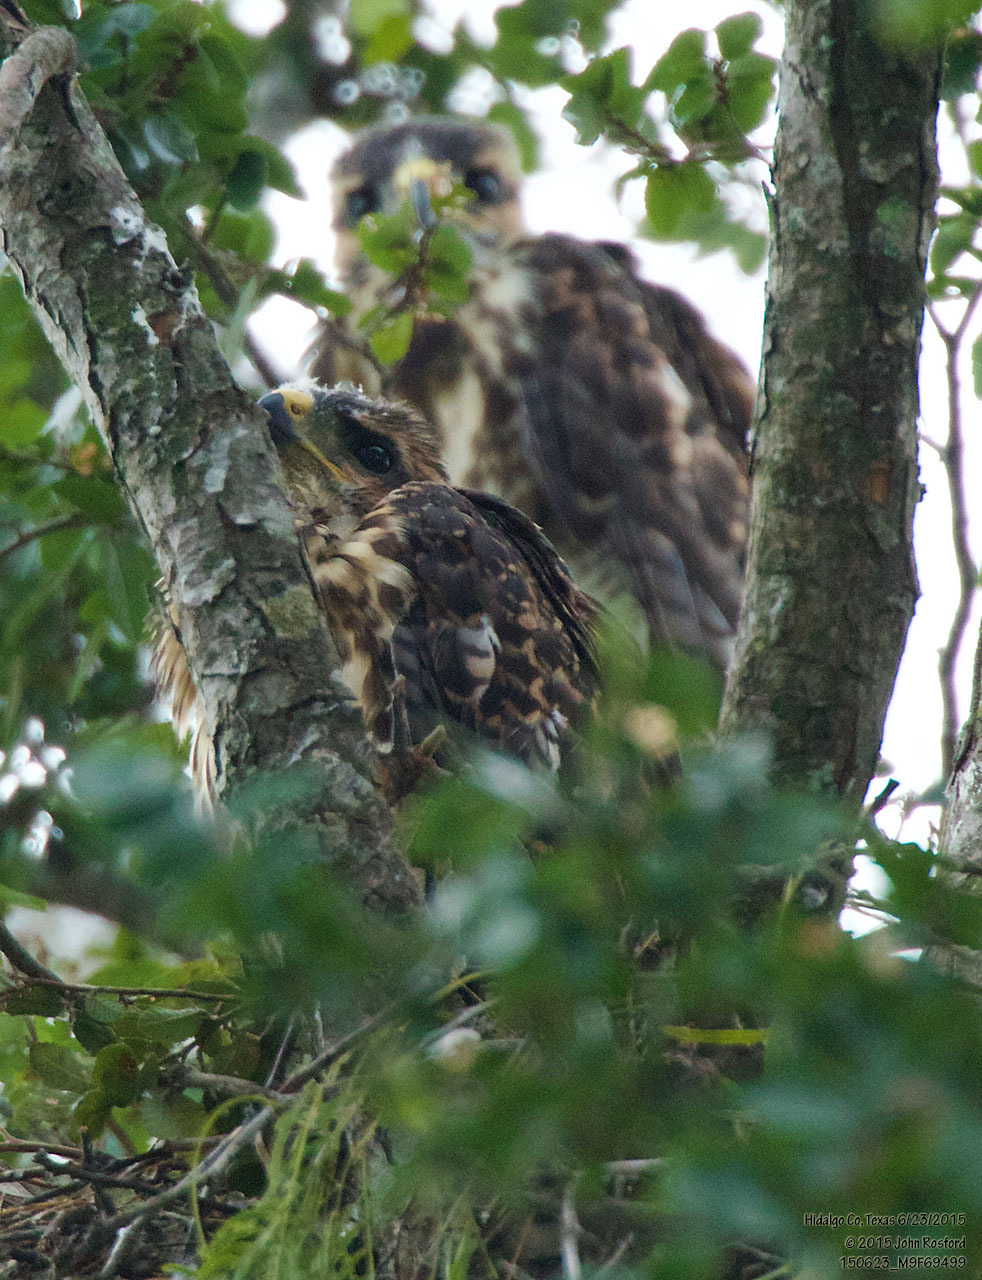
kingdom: Animalia
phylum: Chordata
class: Aves
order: Accipitriformes
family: Accipitridae
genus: Buteo
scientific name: Buteo nitidus
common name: Grey-lined hawk
